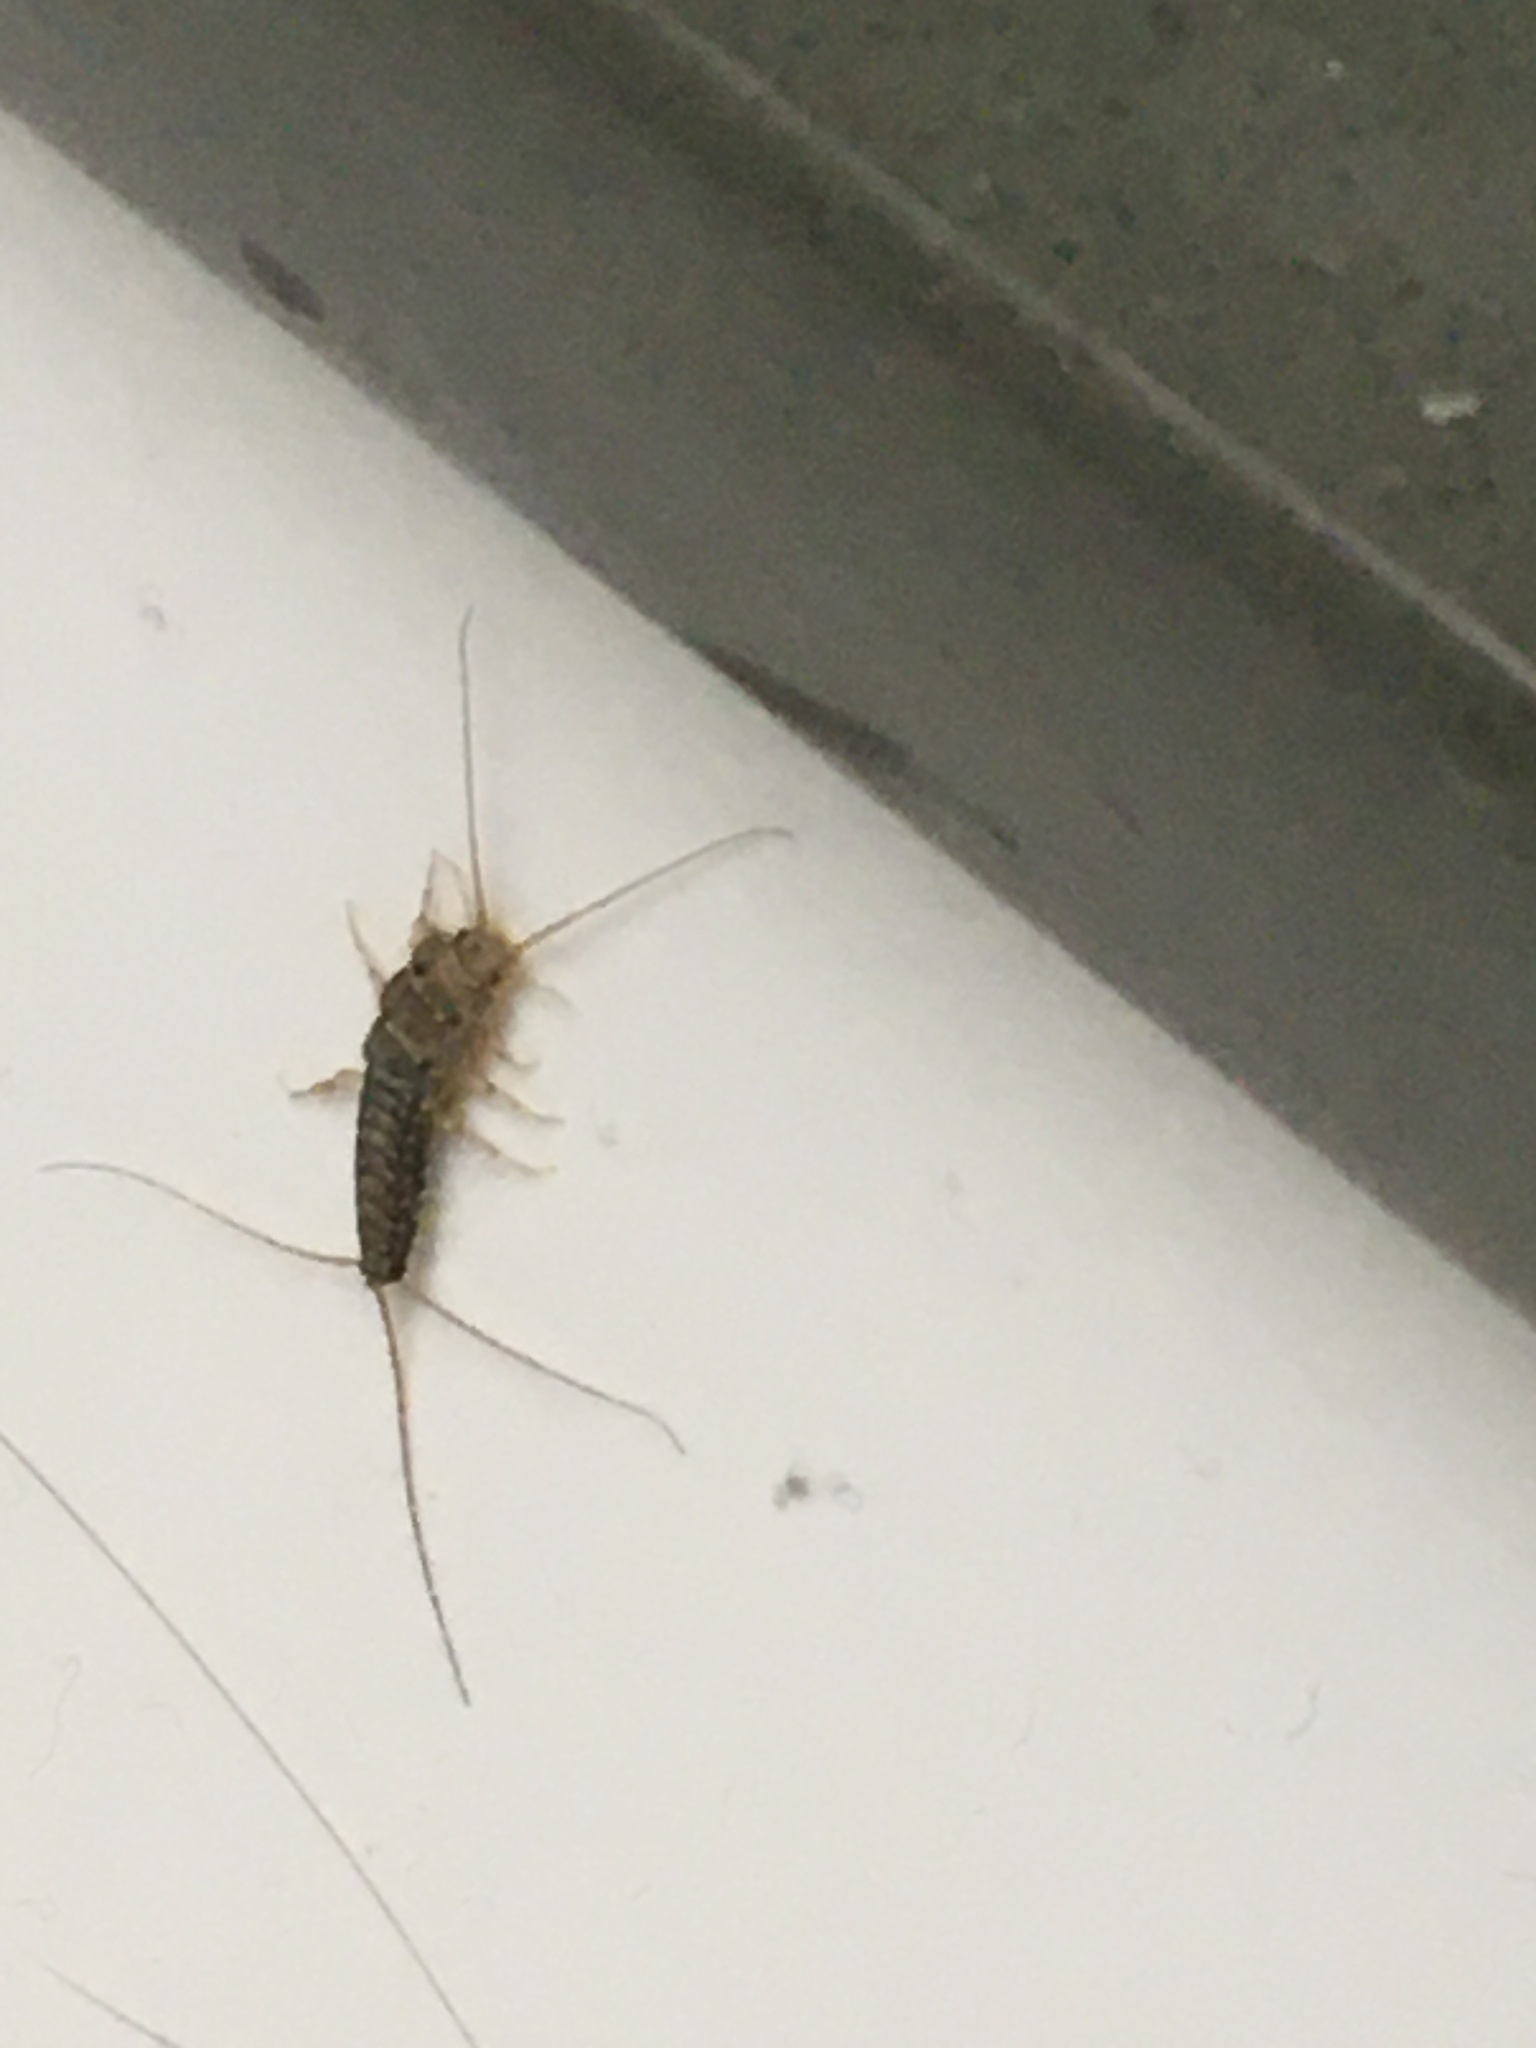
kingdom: Animalia
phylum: Arthropoda
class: Insecta
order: Zygentoma
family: Lepismatidae
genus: Ctenolepisma
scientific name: Ctenolepisma longicaudatum
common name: Silverfish
